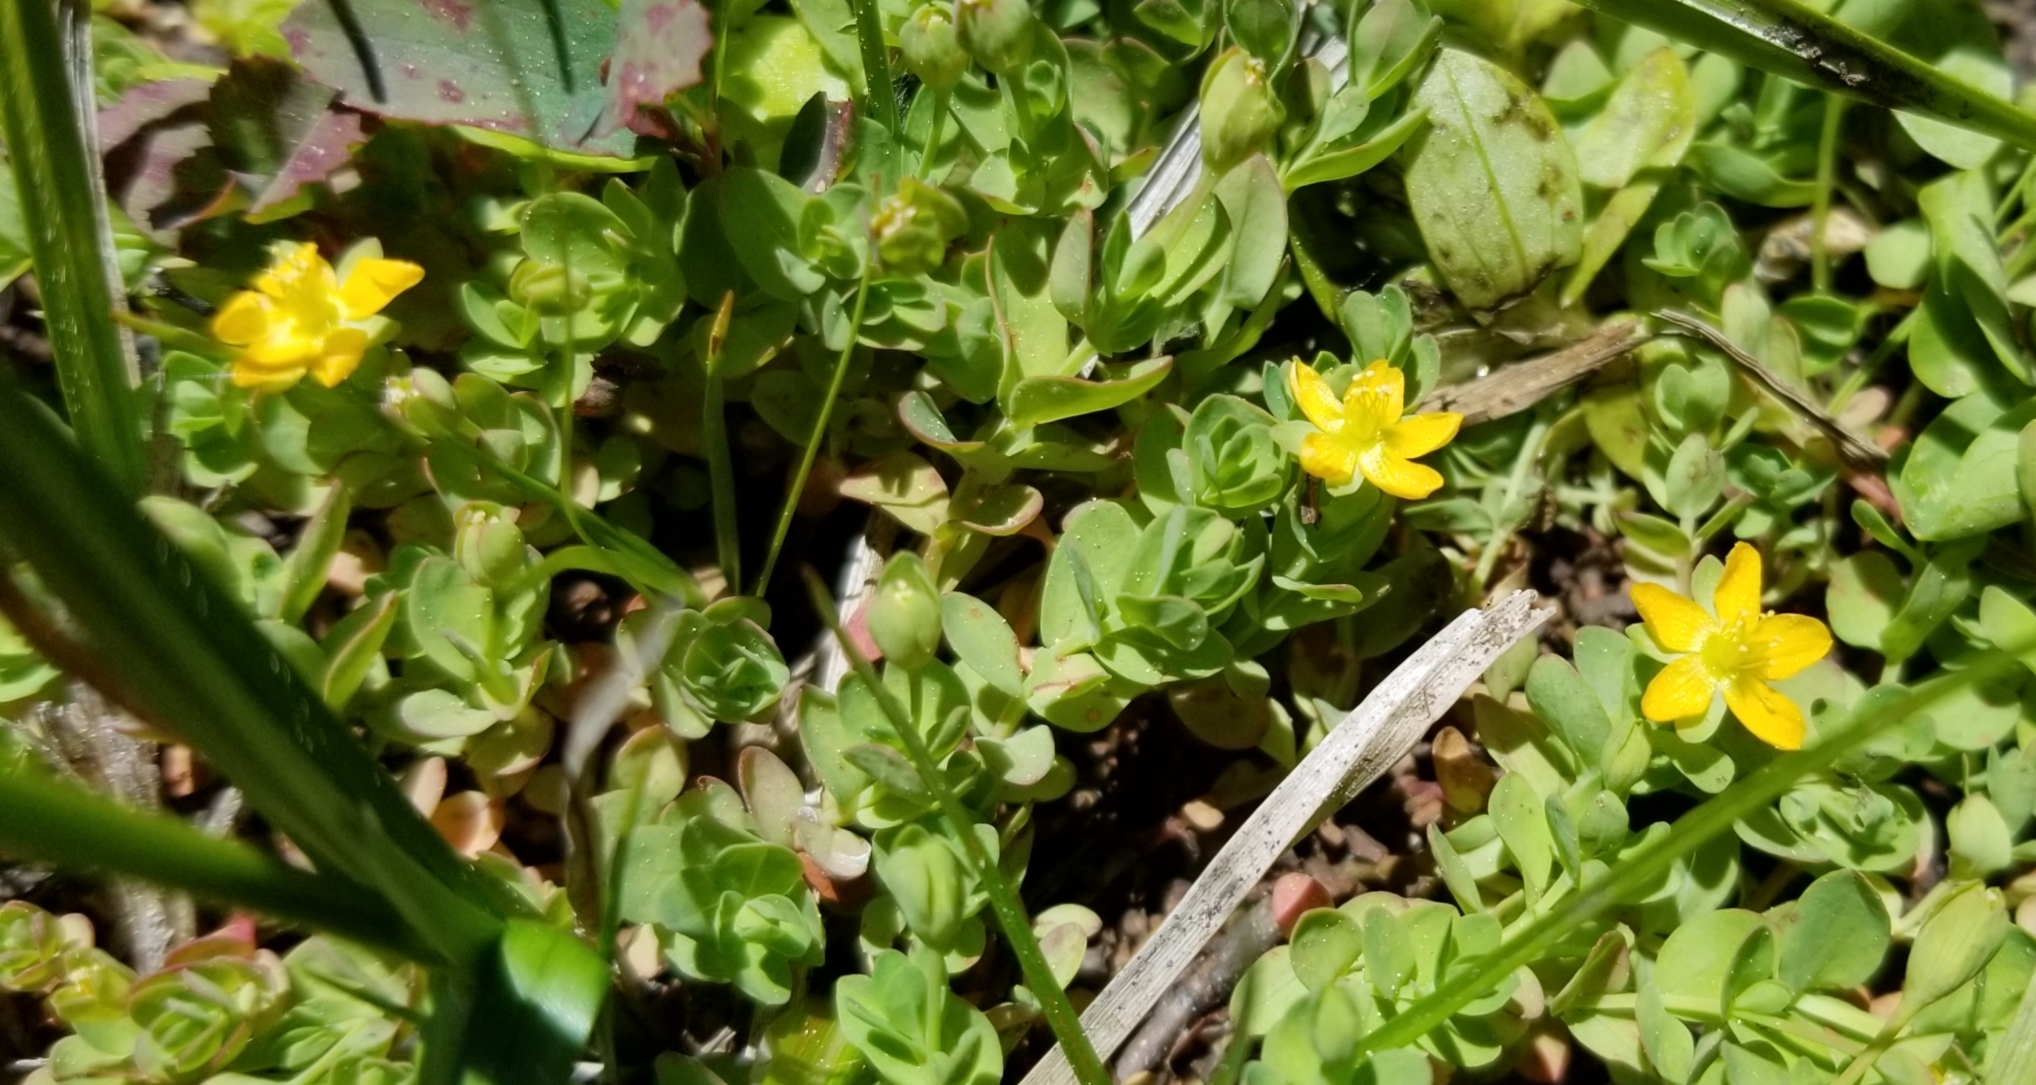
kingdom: Plantae
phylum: Tracheophyta
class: Magnoliopsida
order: Malpighiales
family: Hypericaceae
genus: Hypericum
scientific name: Hypericum anagalloides
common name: Bog st. john's-wort
